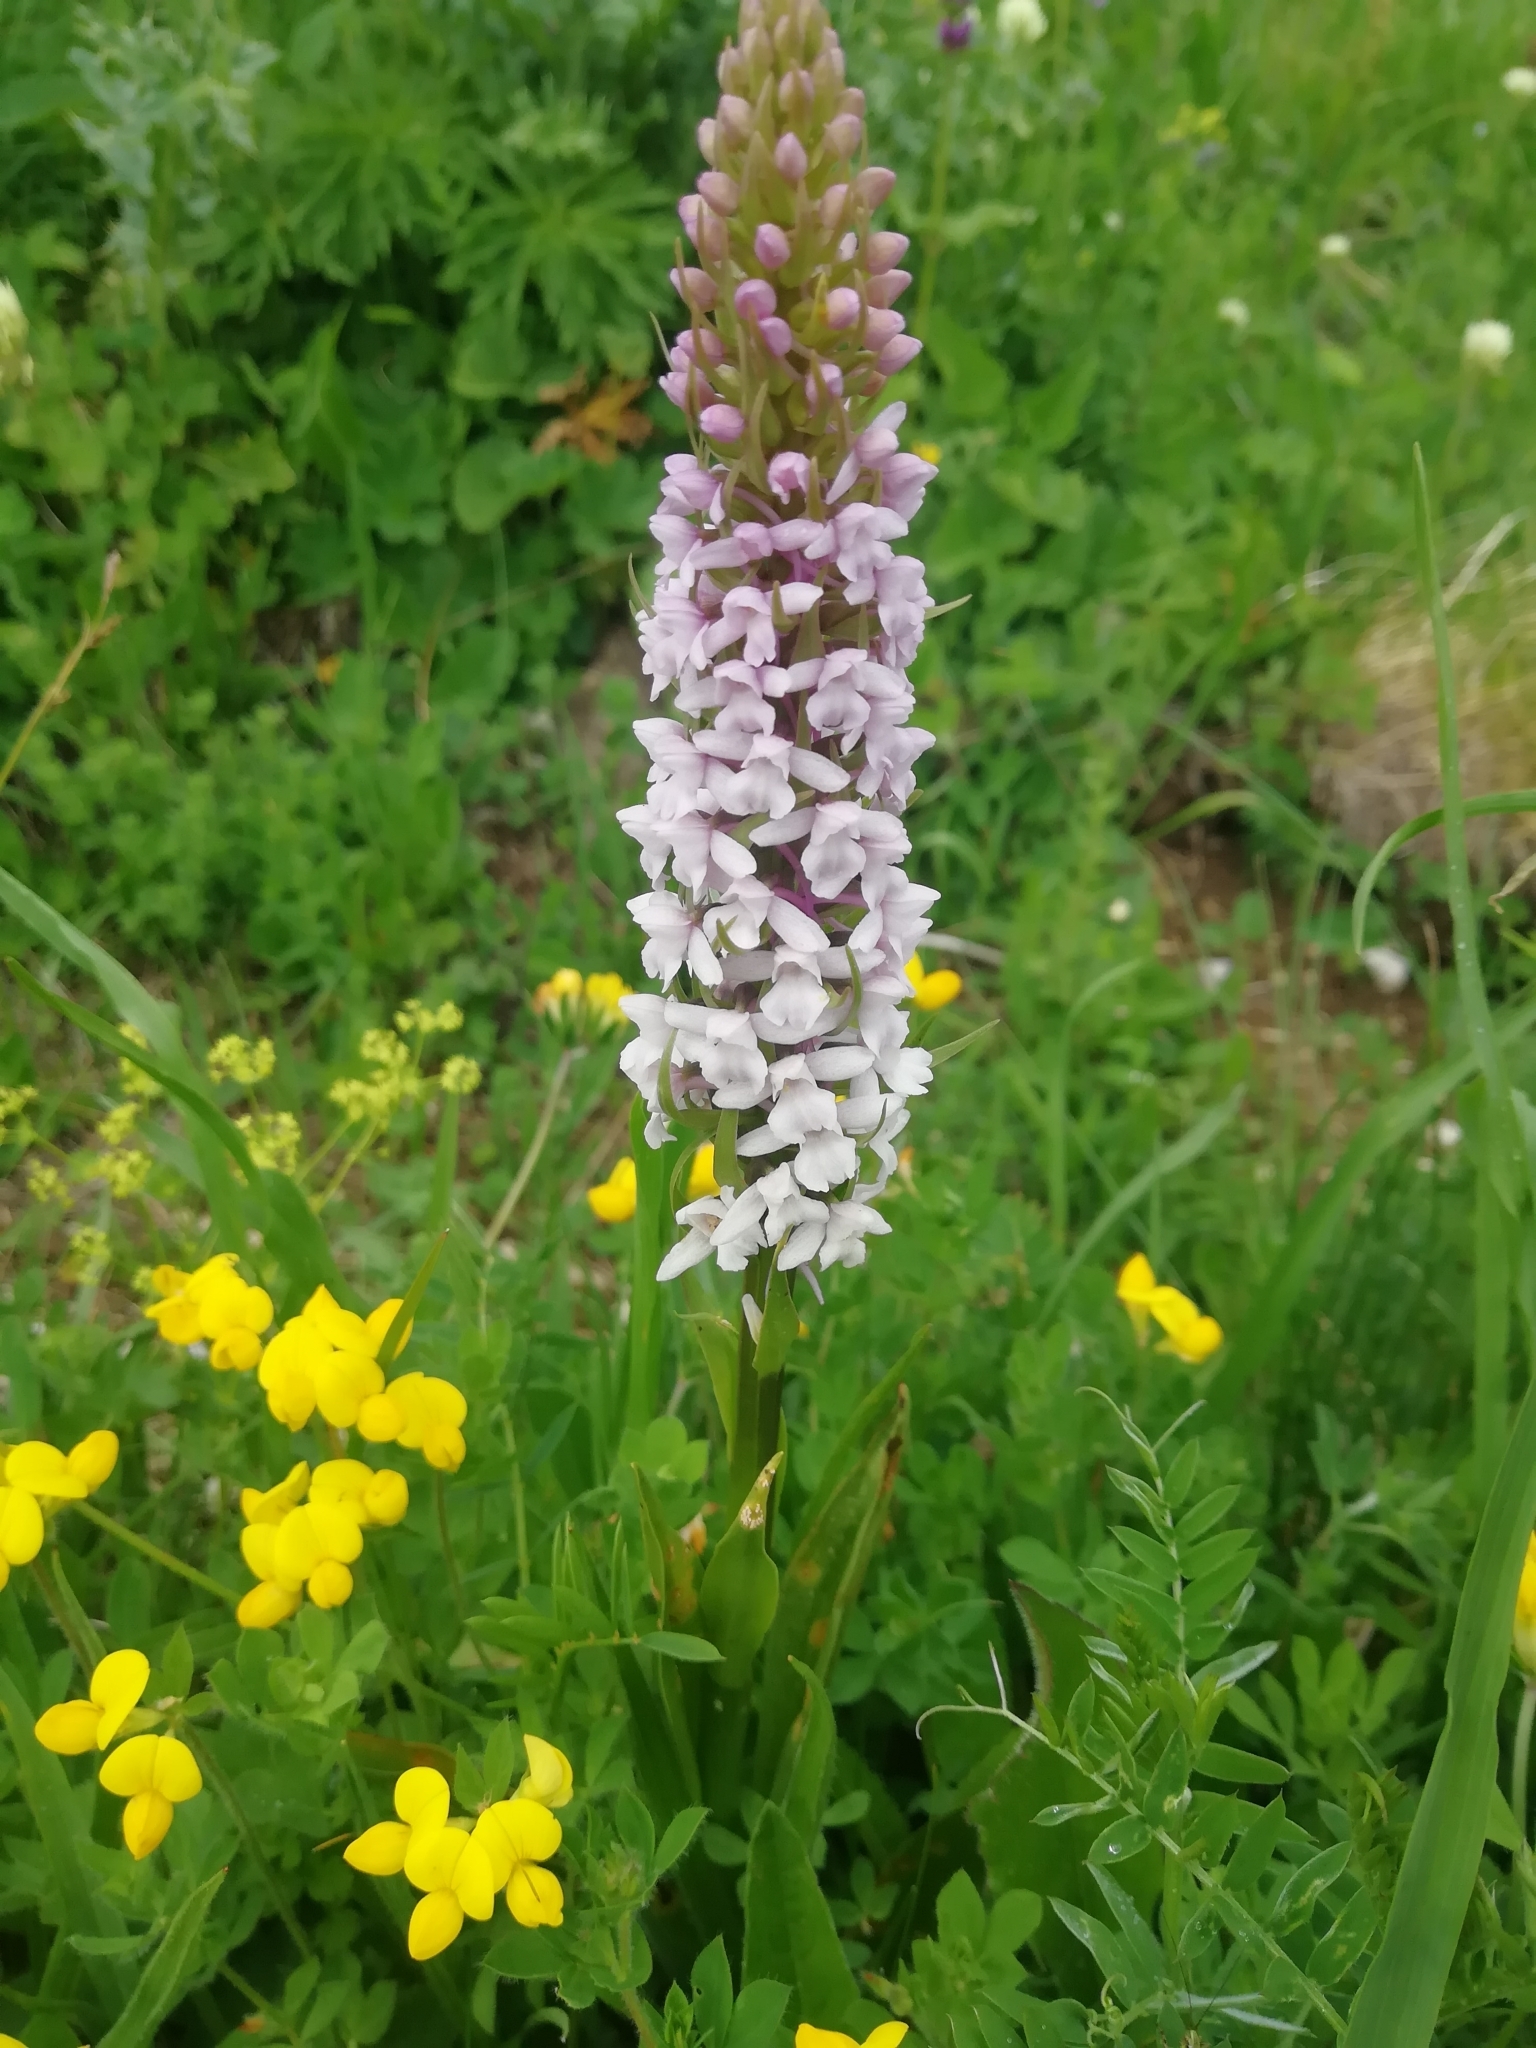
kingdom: Plantae
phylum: Tracheophyta
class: Liliopsida
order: Asparagales
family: Orchidaceae
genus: Gymnadenia
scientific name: Gymnadenia conopsea
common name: Fragrant orchid
